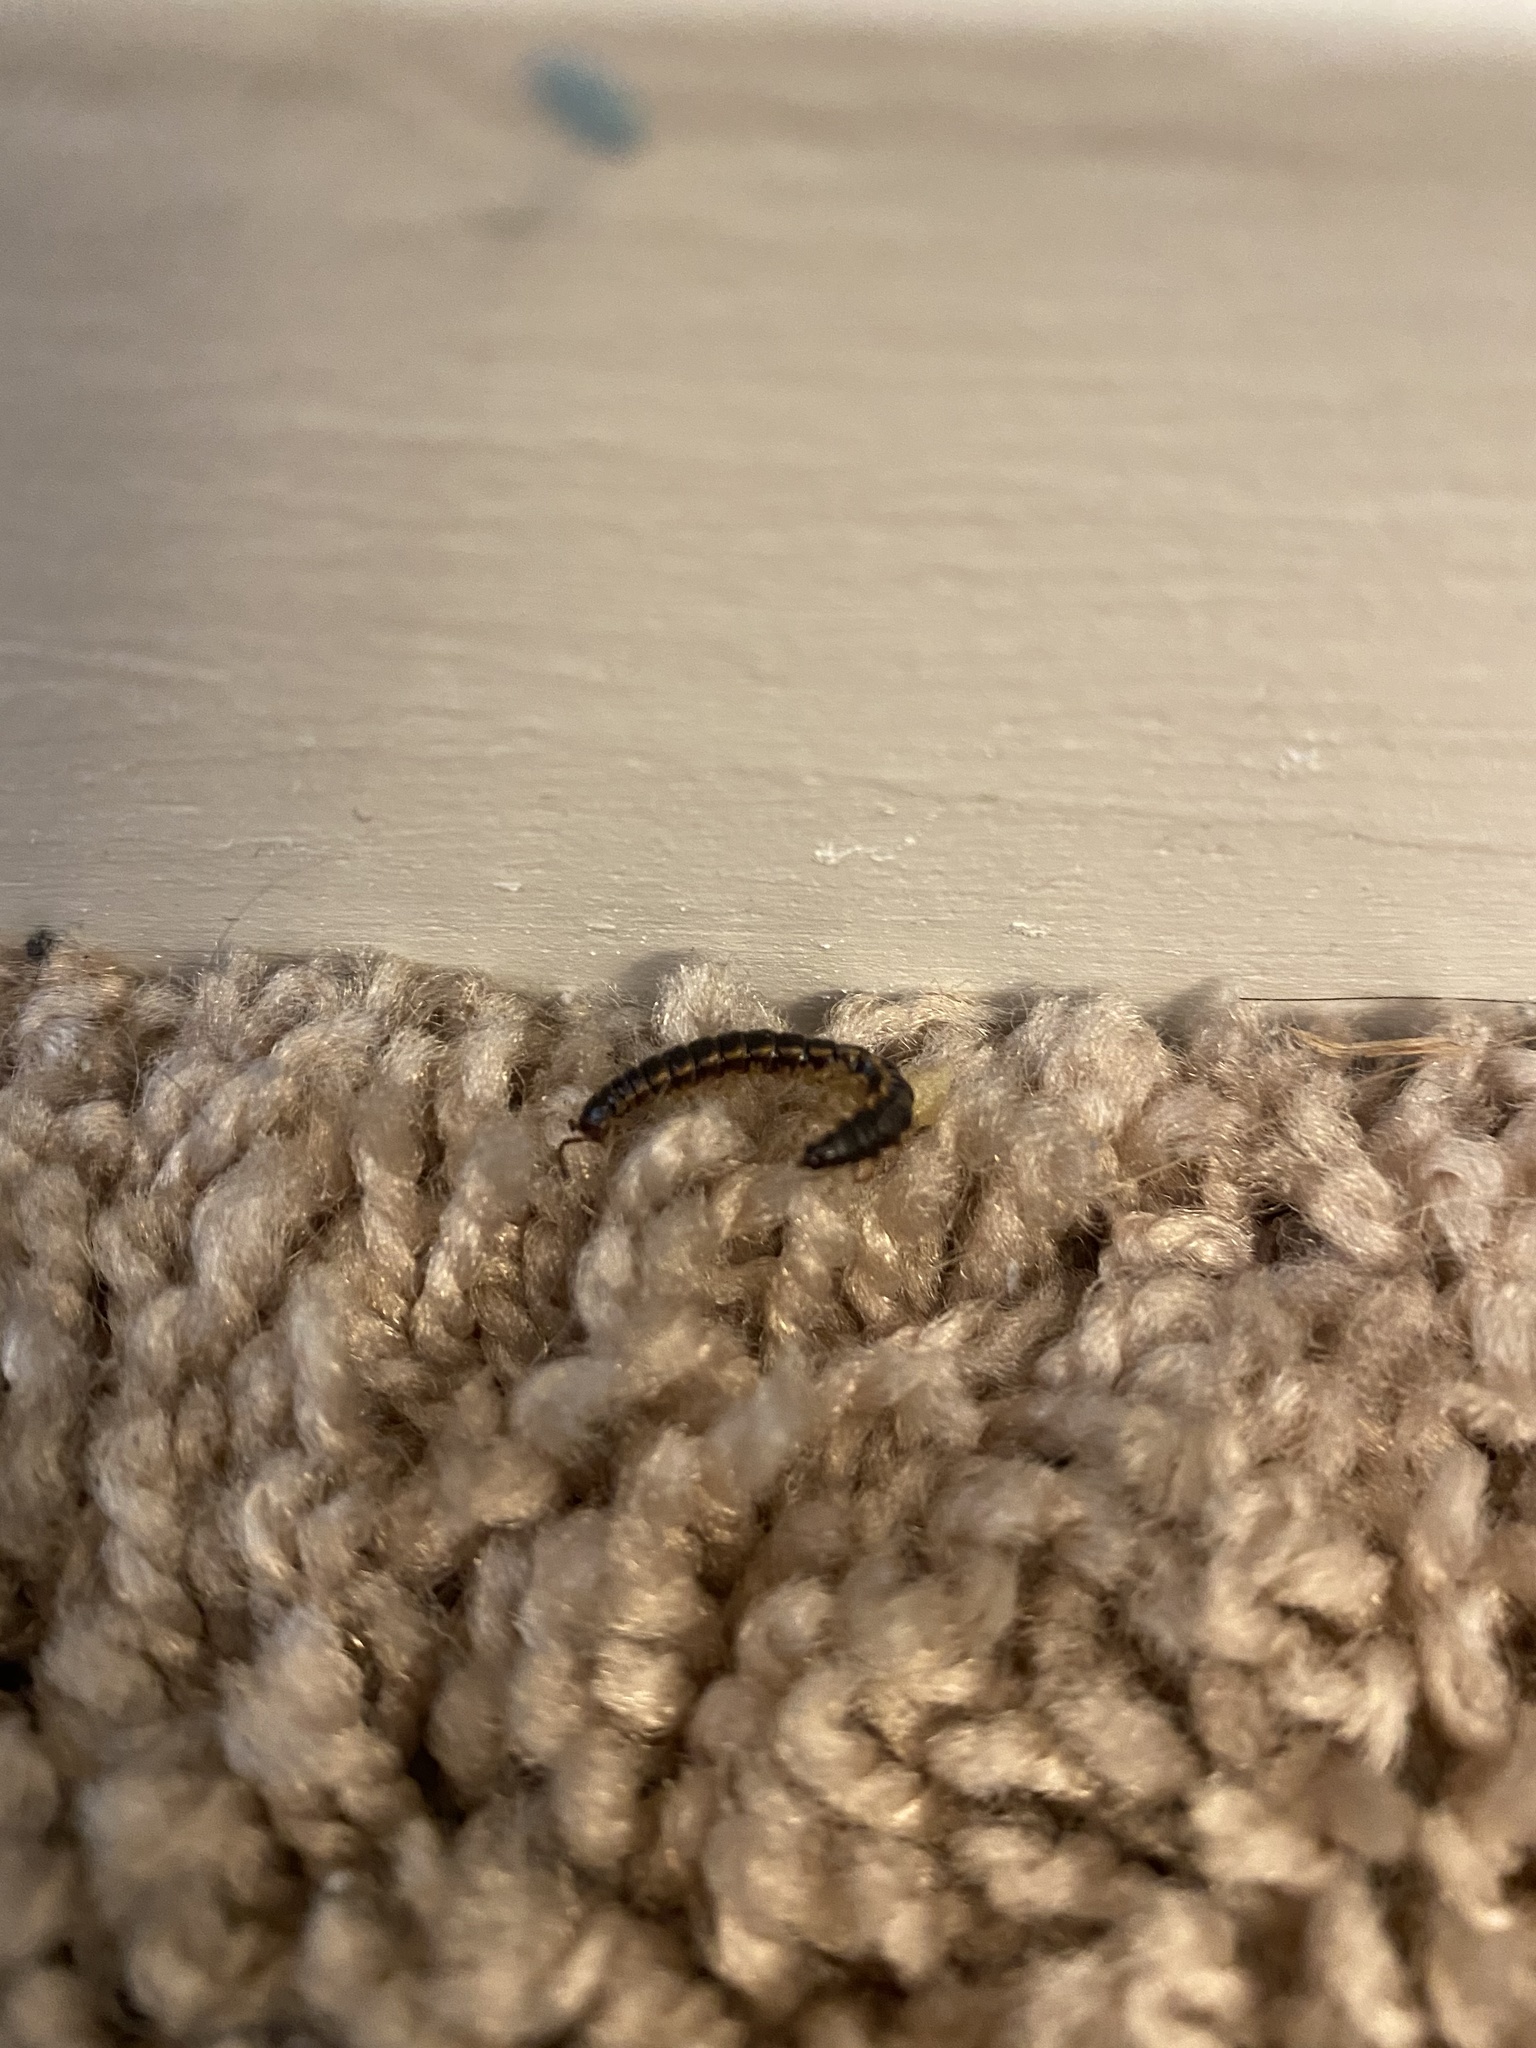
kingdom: Animalia
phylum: Arthropoda
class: Diplopoda
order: Polydesmida
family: Paradoxosomatidae
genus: Oxidus
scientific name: Oxidus gracilis
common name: Greenhouse millipede
